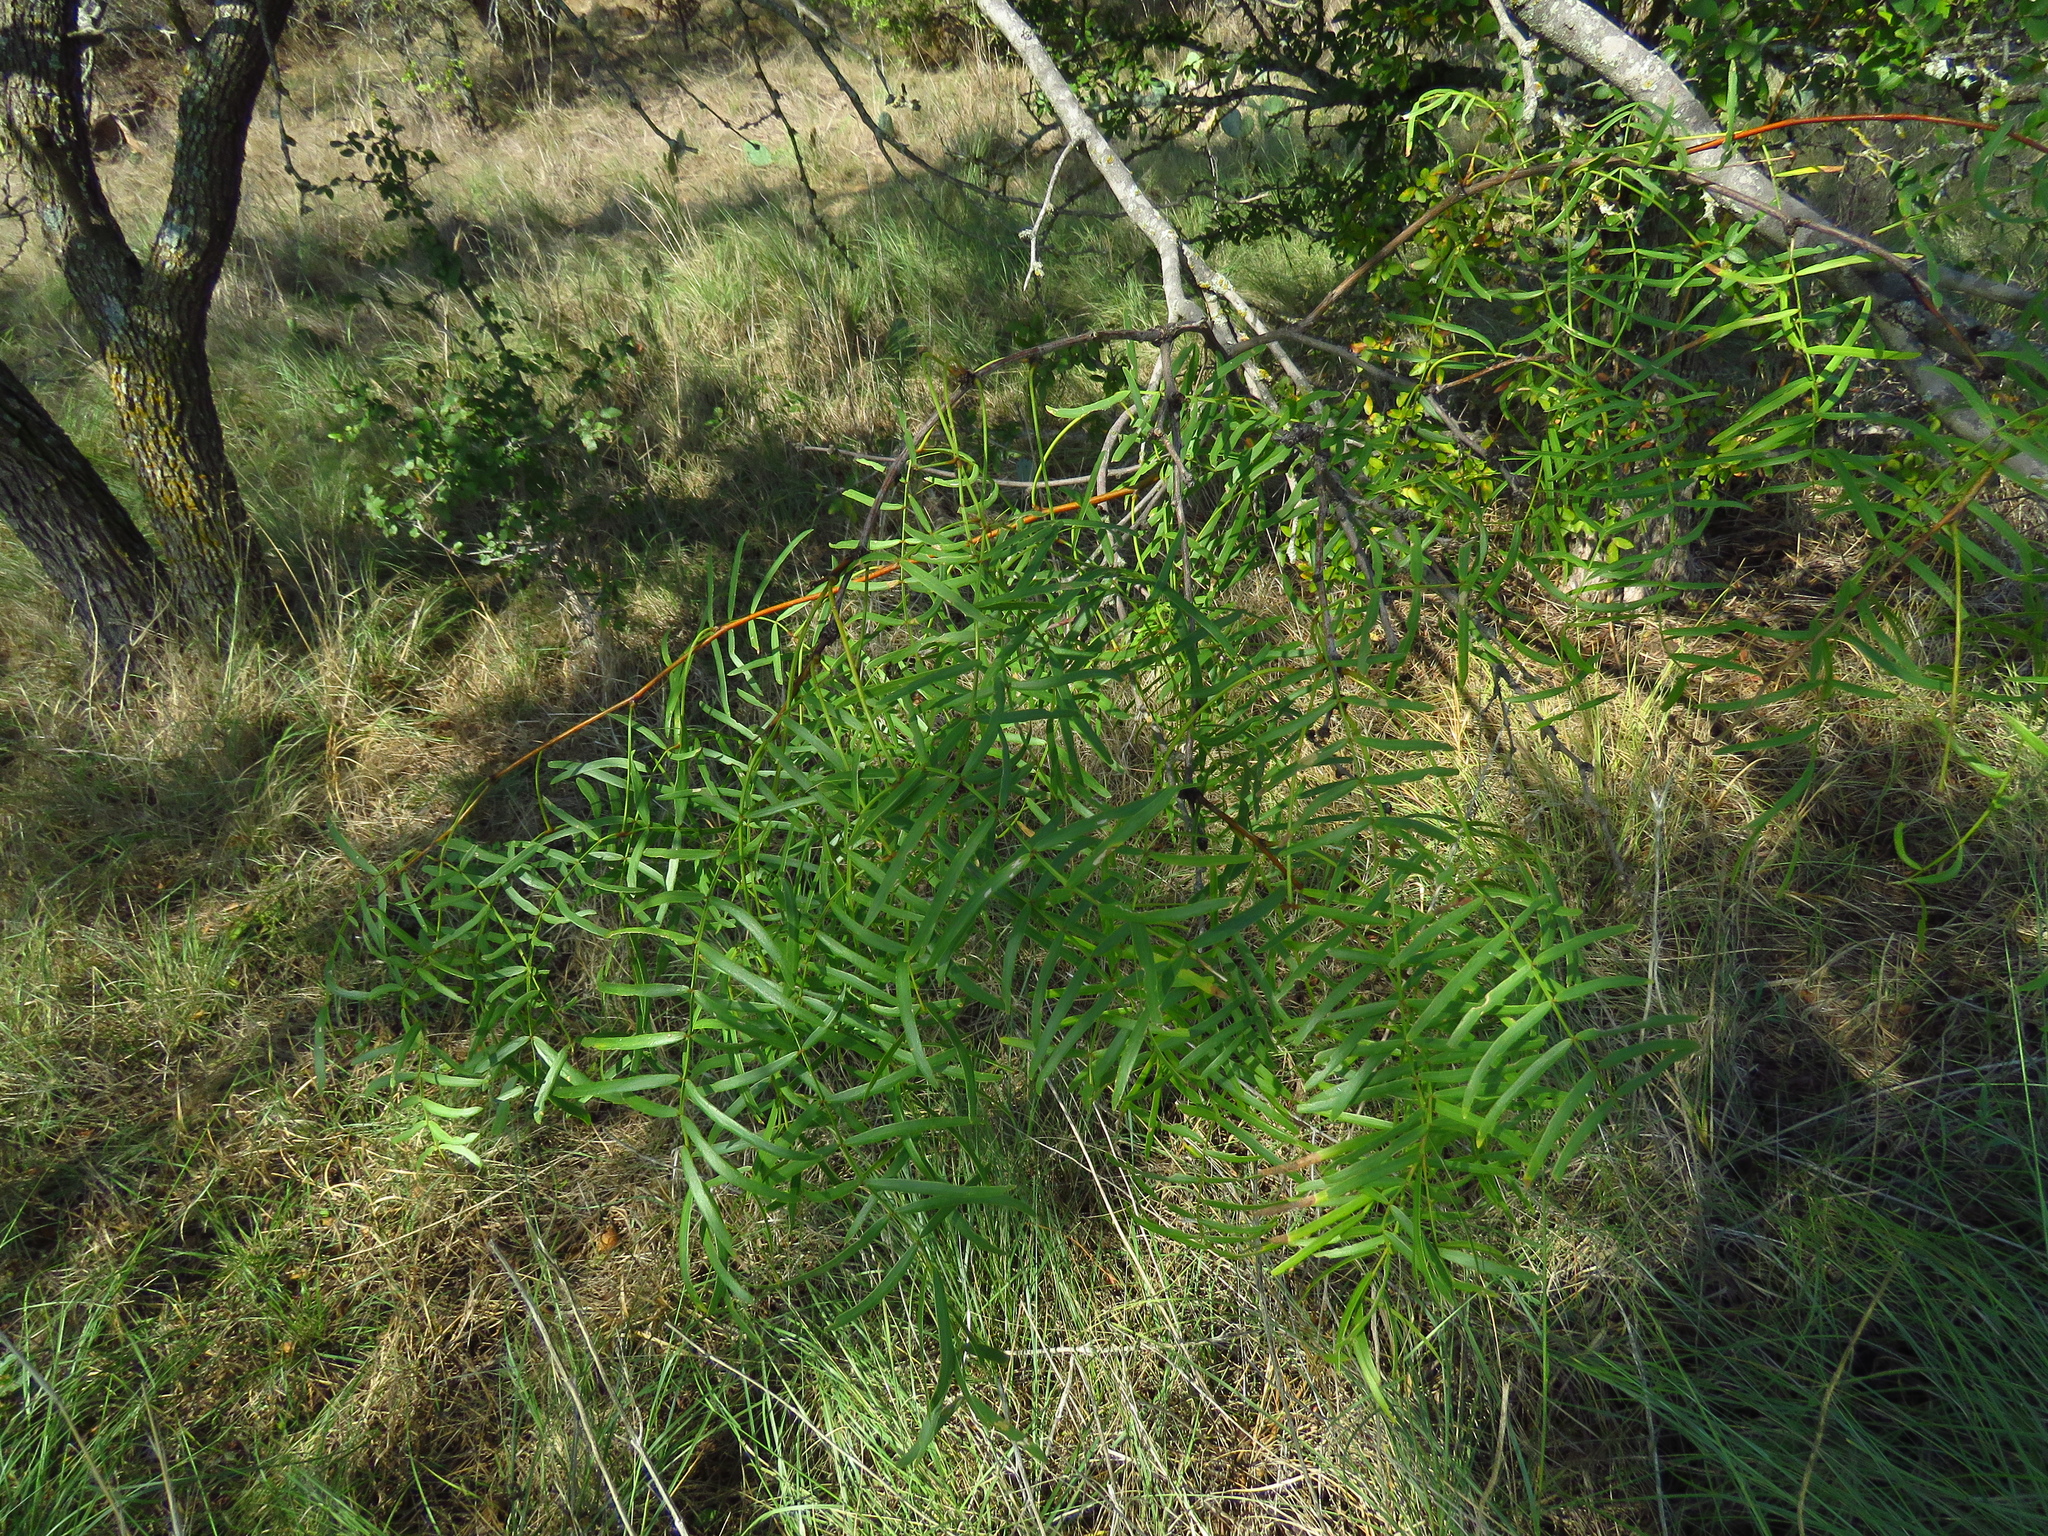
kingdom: Plantae
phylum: Tracheophyta
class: Magnoliopsida
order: Fabales
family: Fabaceae
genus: Prosopis
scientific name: Prosopis glandulosa
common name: Honey mesquite
